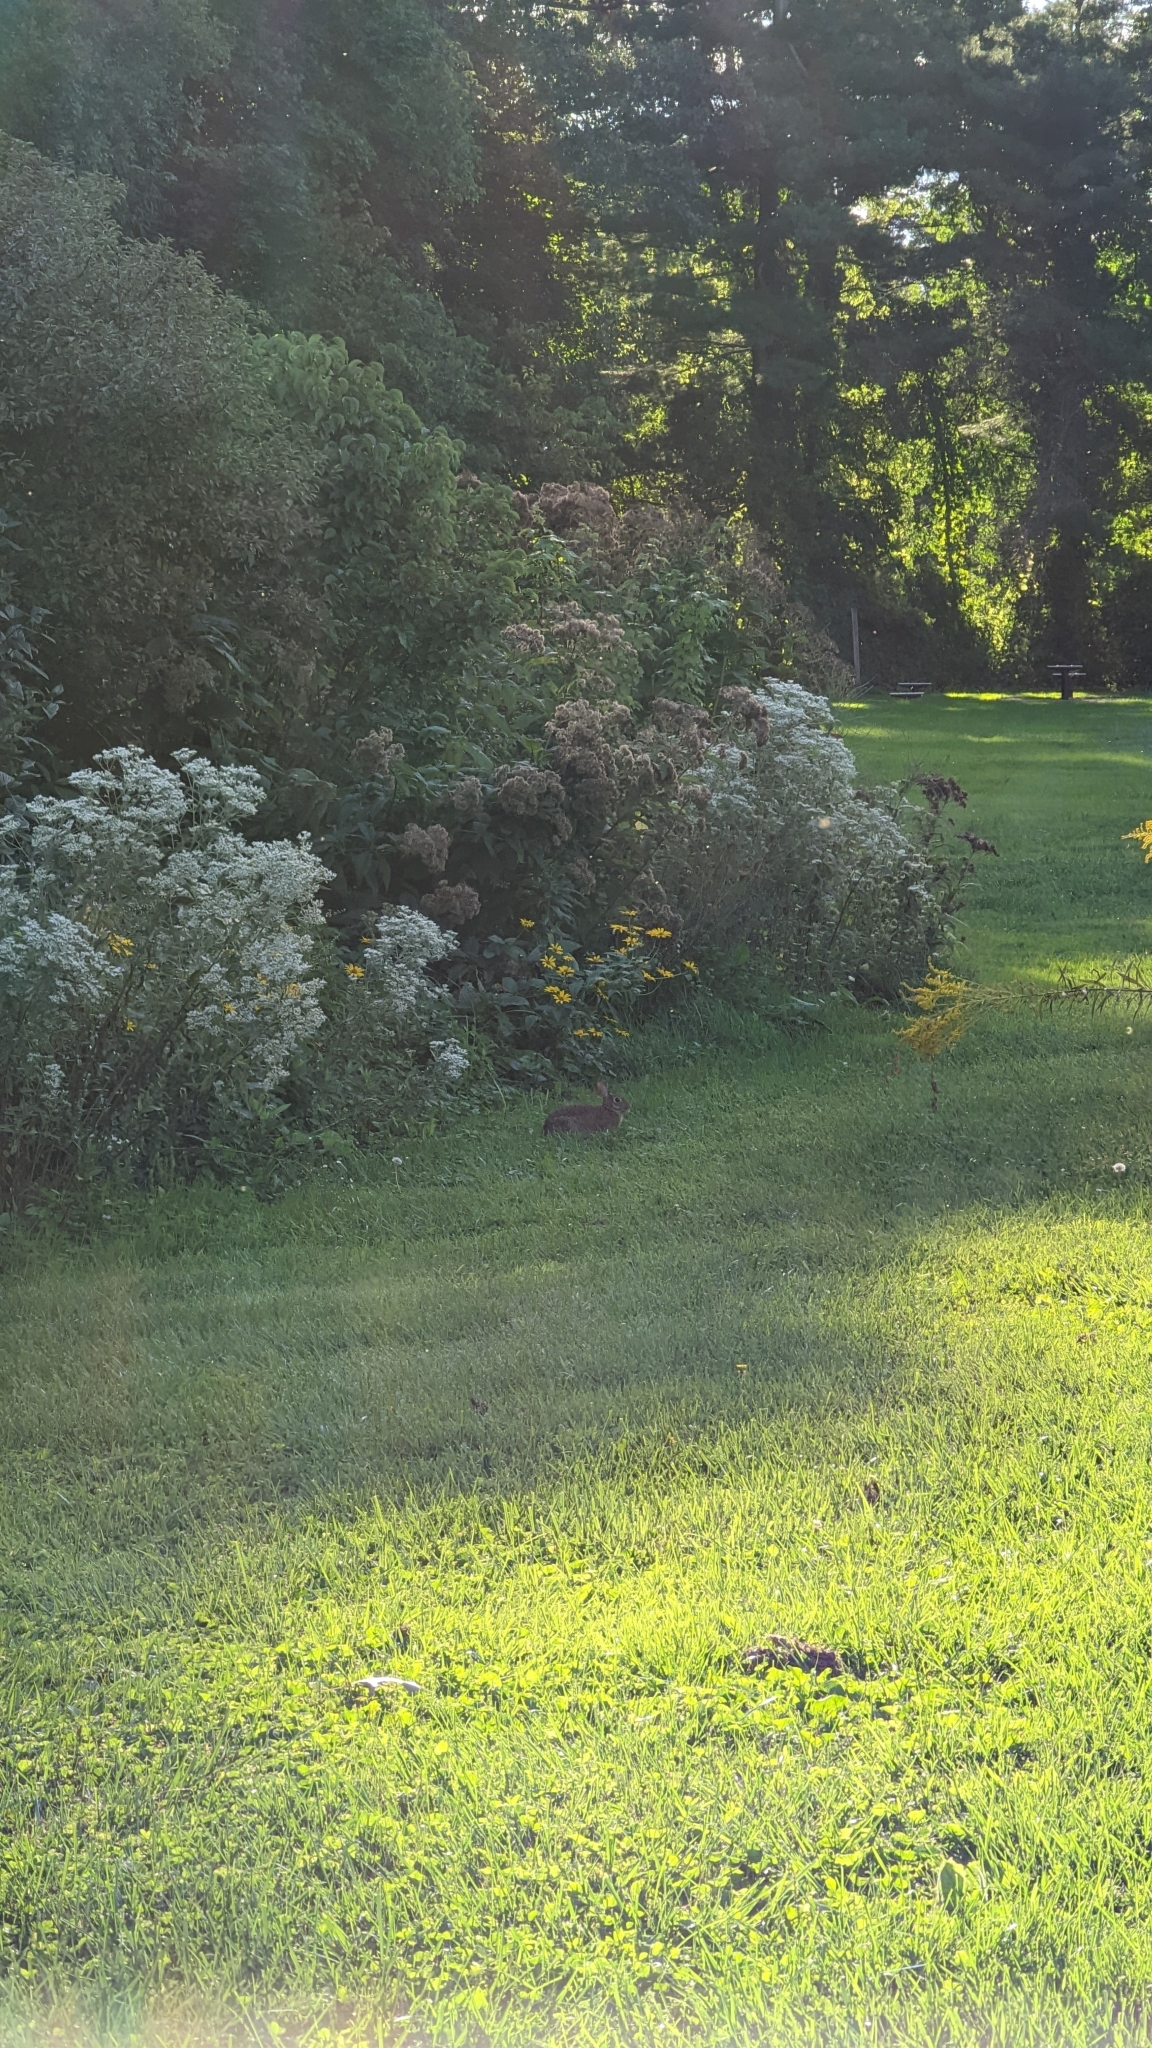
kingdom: Animalia
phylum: Chordata
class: Mammalia
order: Lagomorpha
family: Leporidae
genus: Sylvilagus
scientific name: Sylvilagus floridanus
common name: Eastern cottontail
